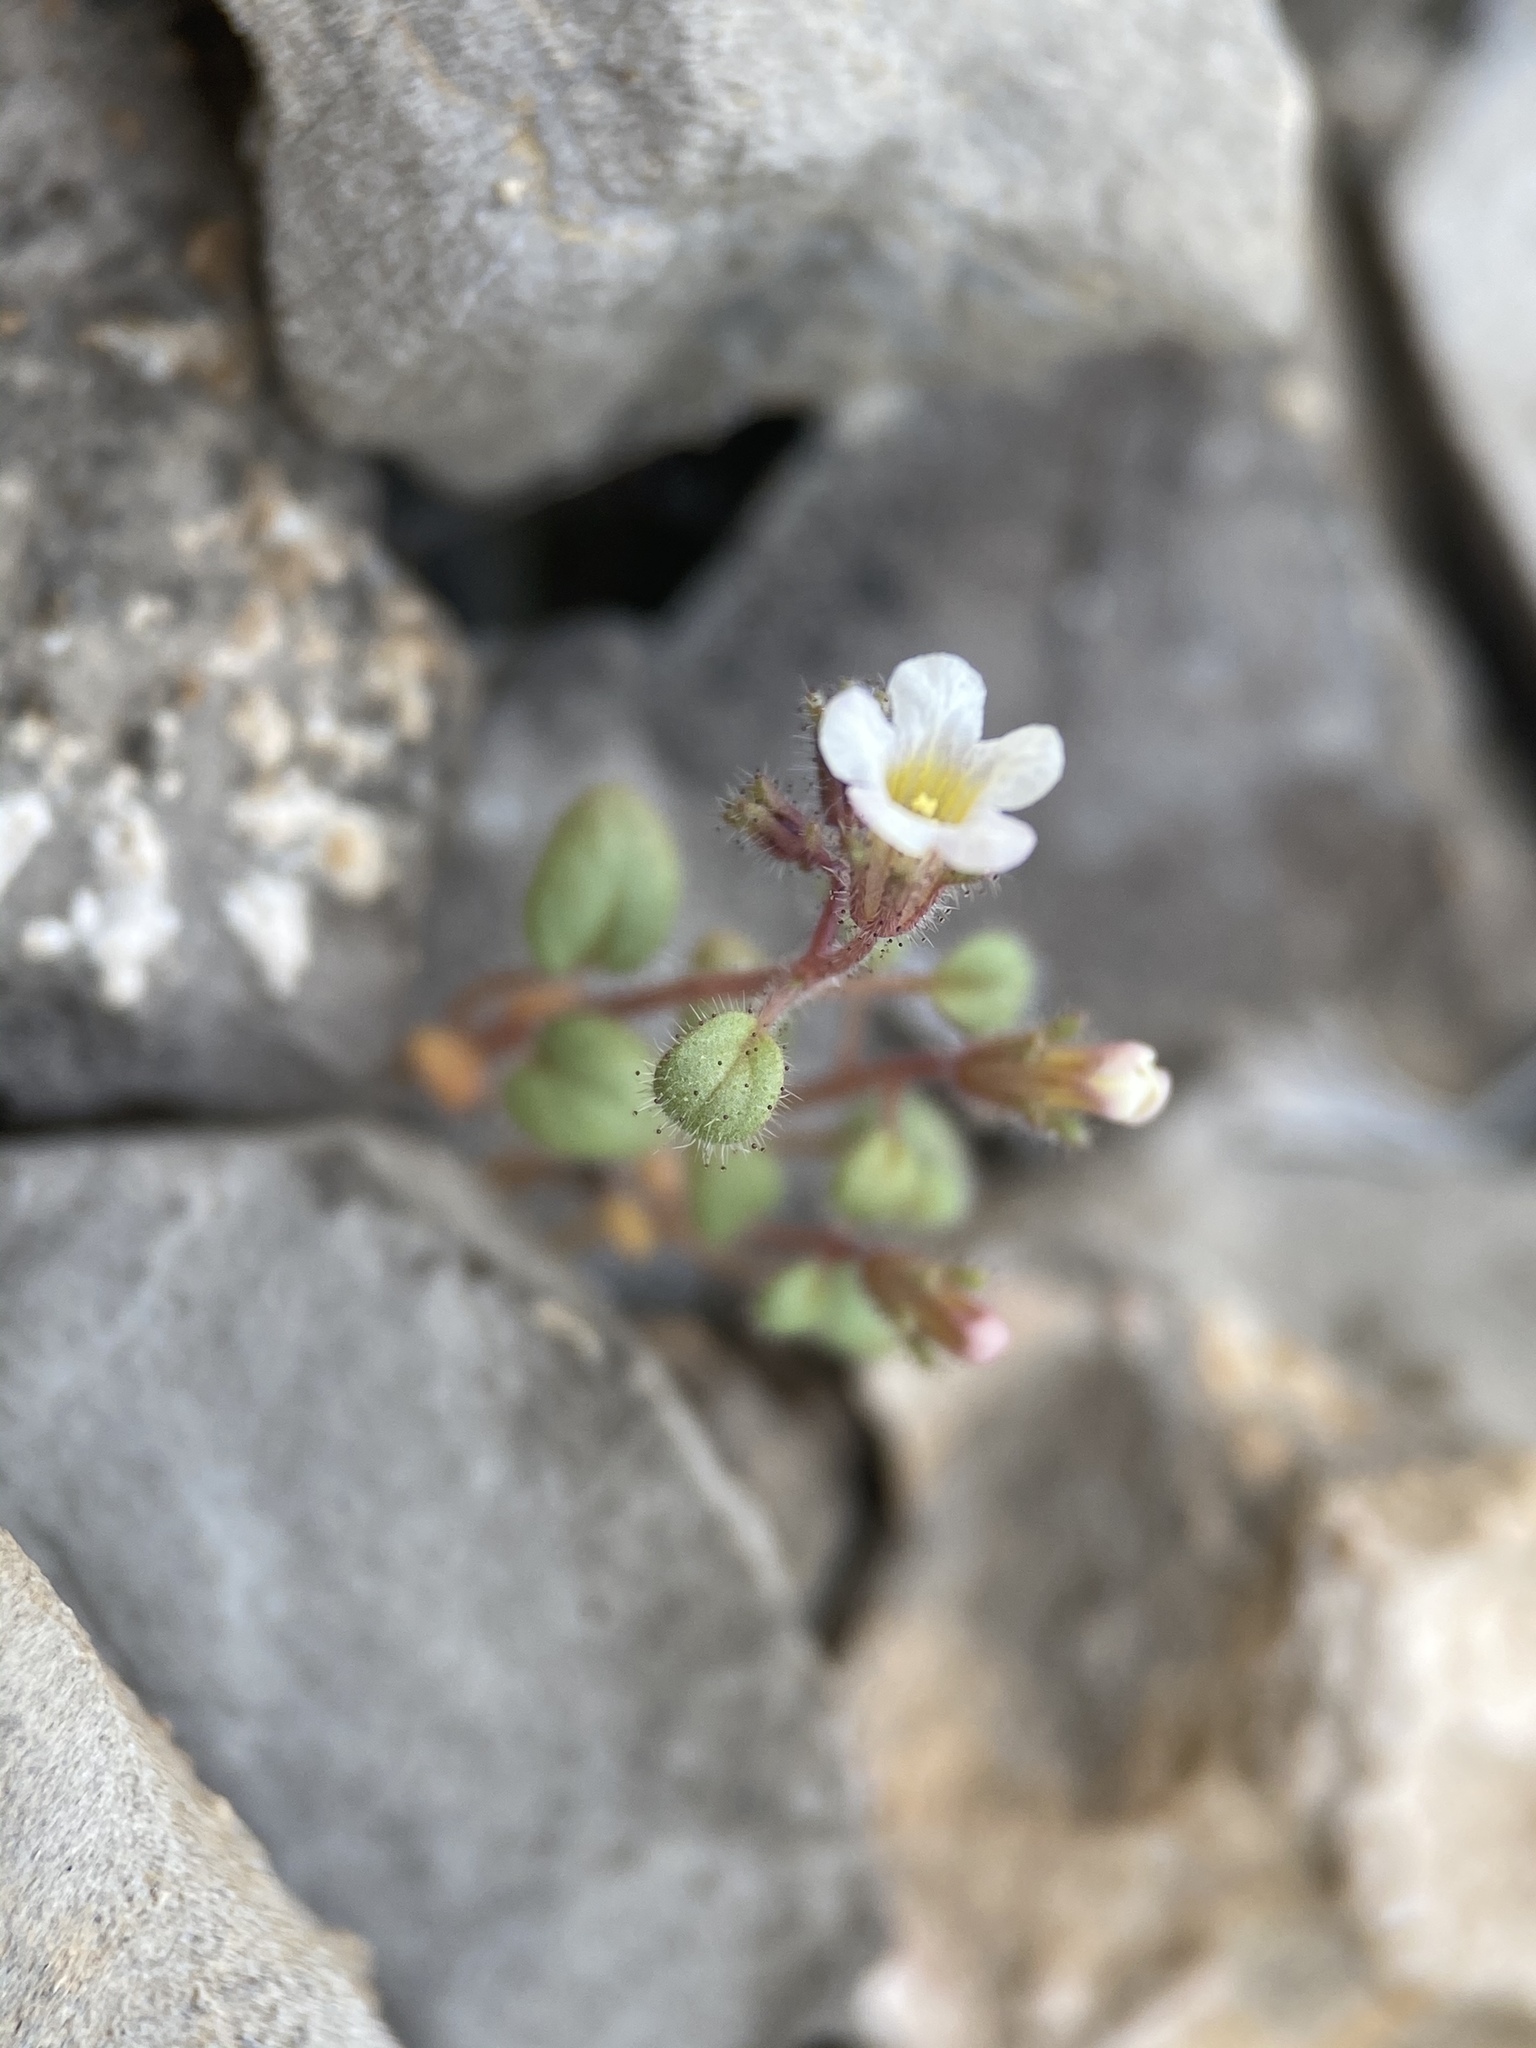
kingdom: Plantae
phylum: Tracheophyta
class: Magnoliopsida
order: Boraginales
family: Hydrophyllaceae
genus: Phacelia
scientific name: Phacelia barnebyana
